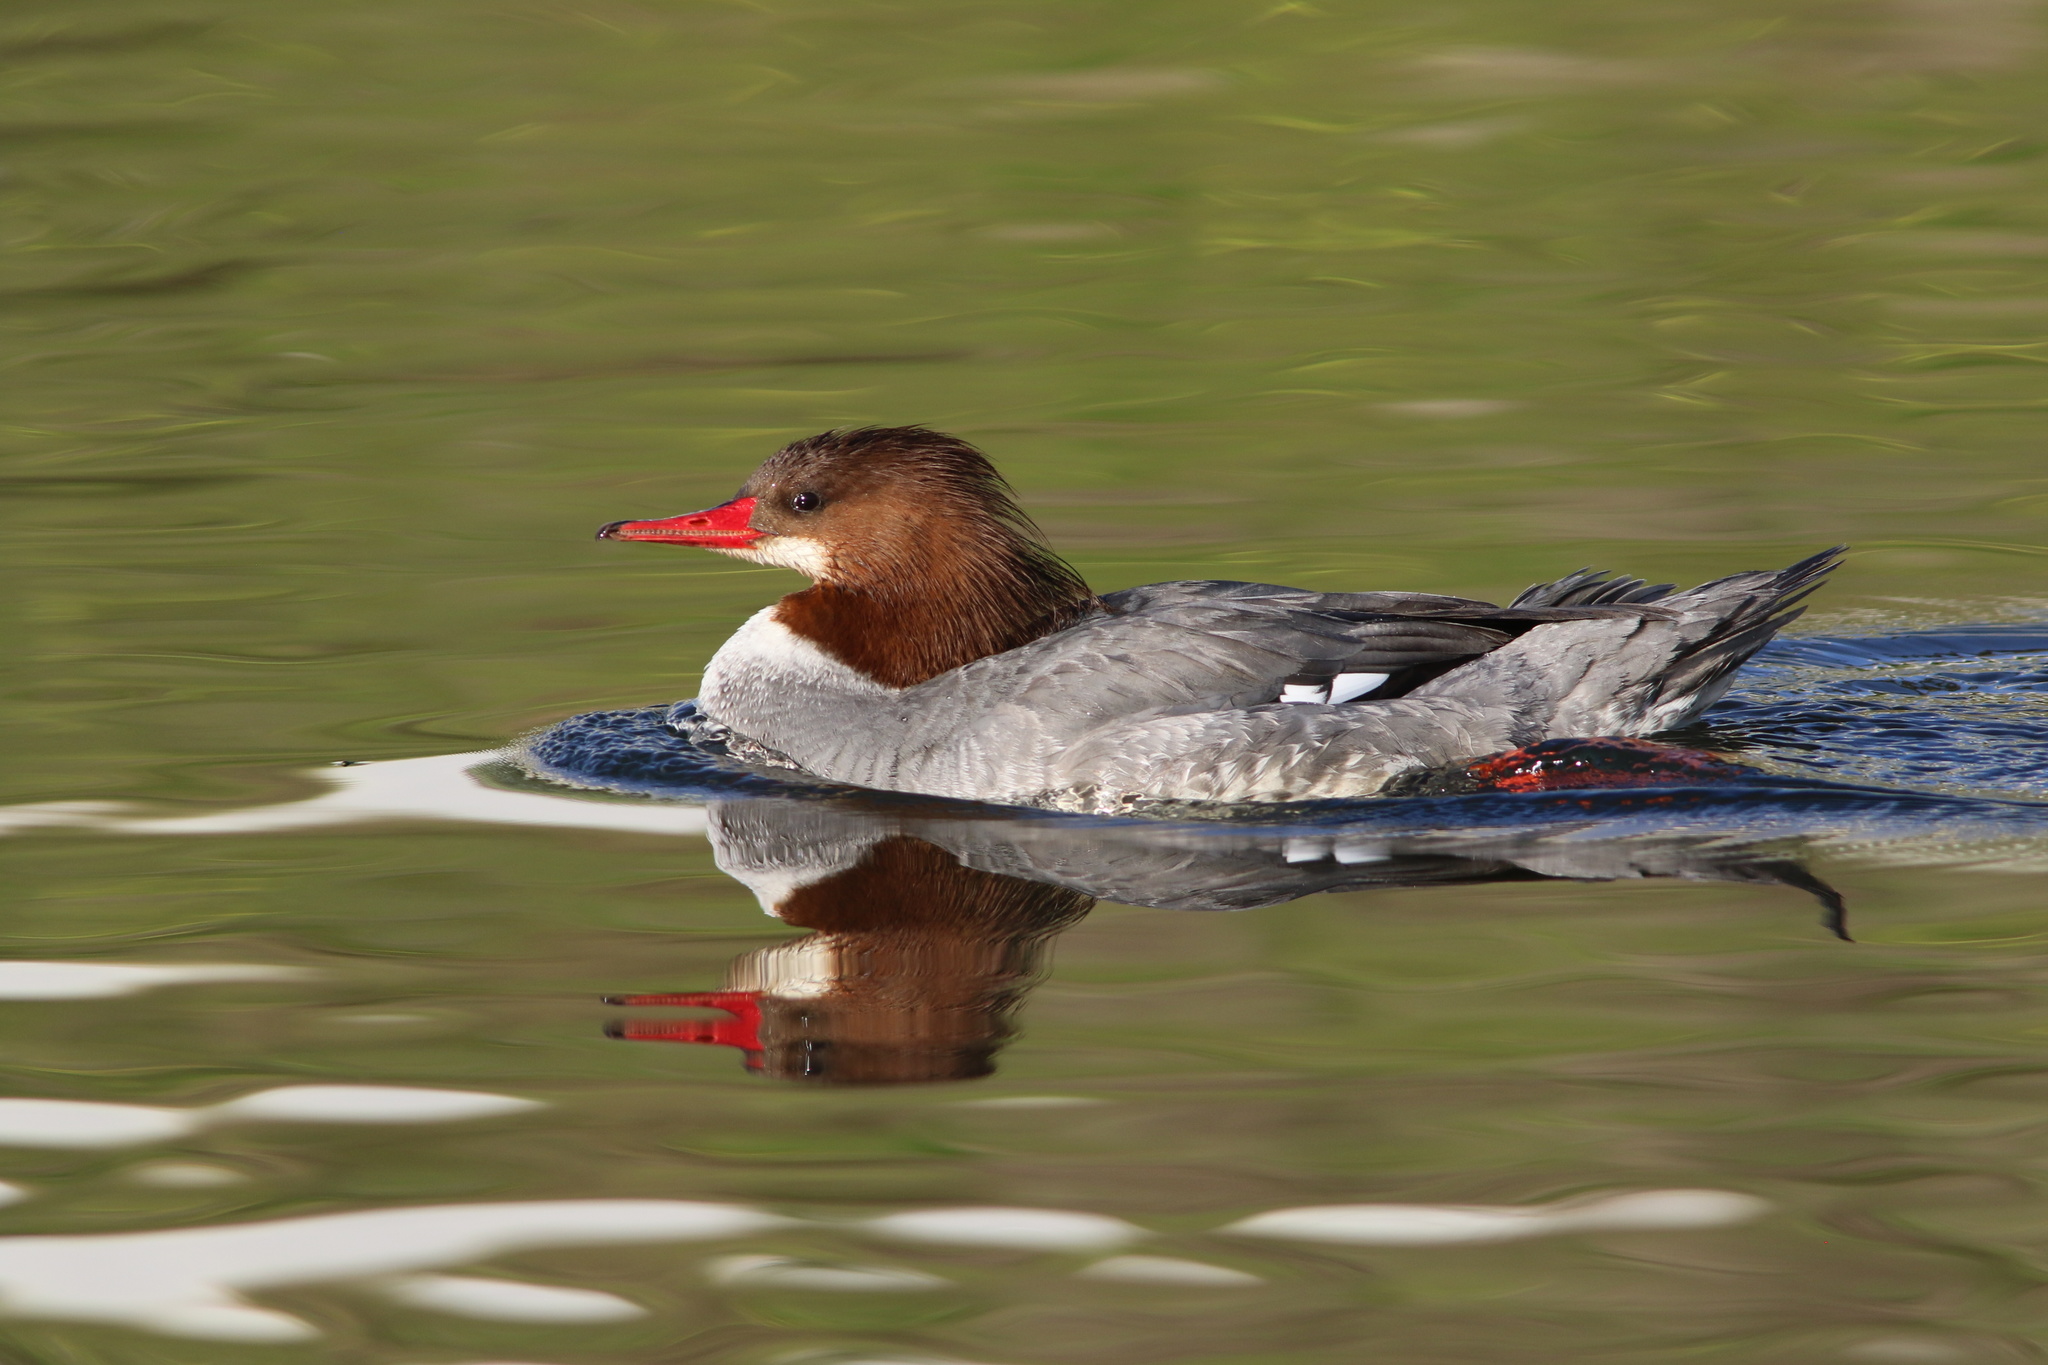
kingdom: Animalia
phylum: Chordata
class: Aves
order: Anseriformes
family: Anatidae
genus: Mergus
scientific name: Mergus merganser
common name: Common merganser
